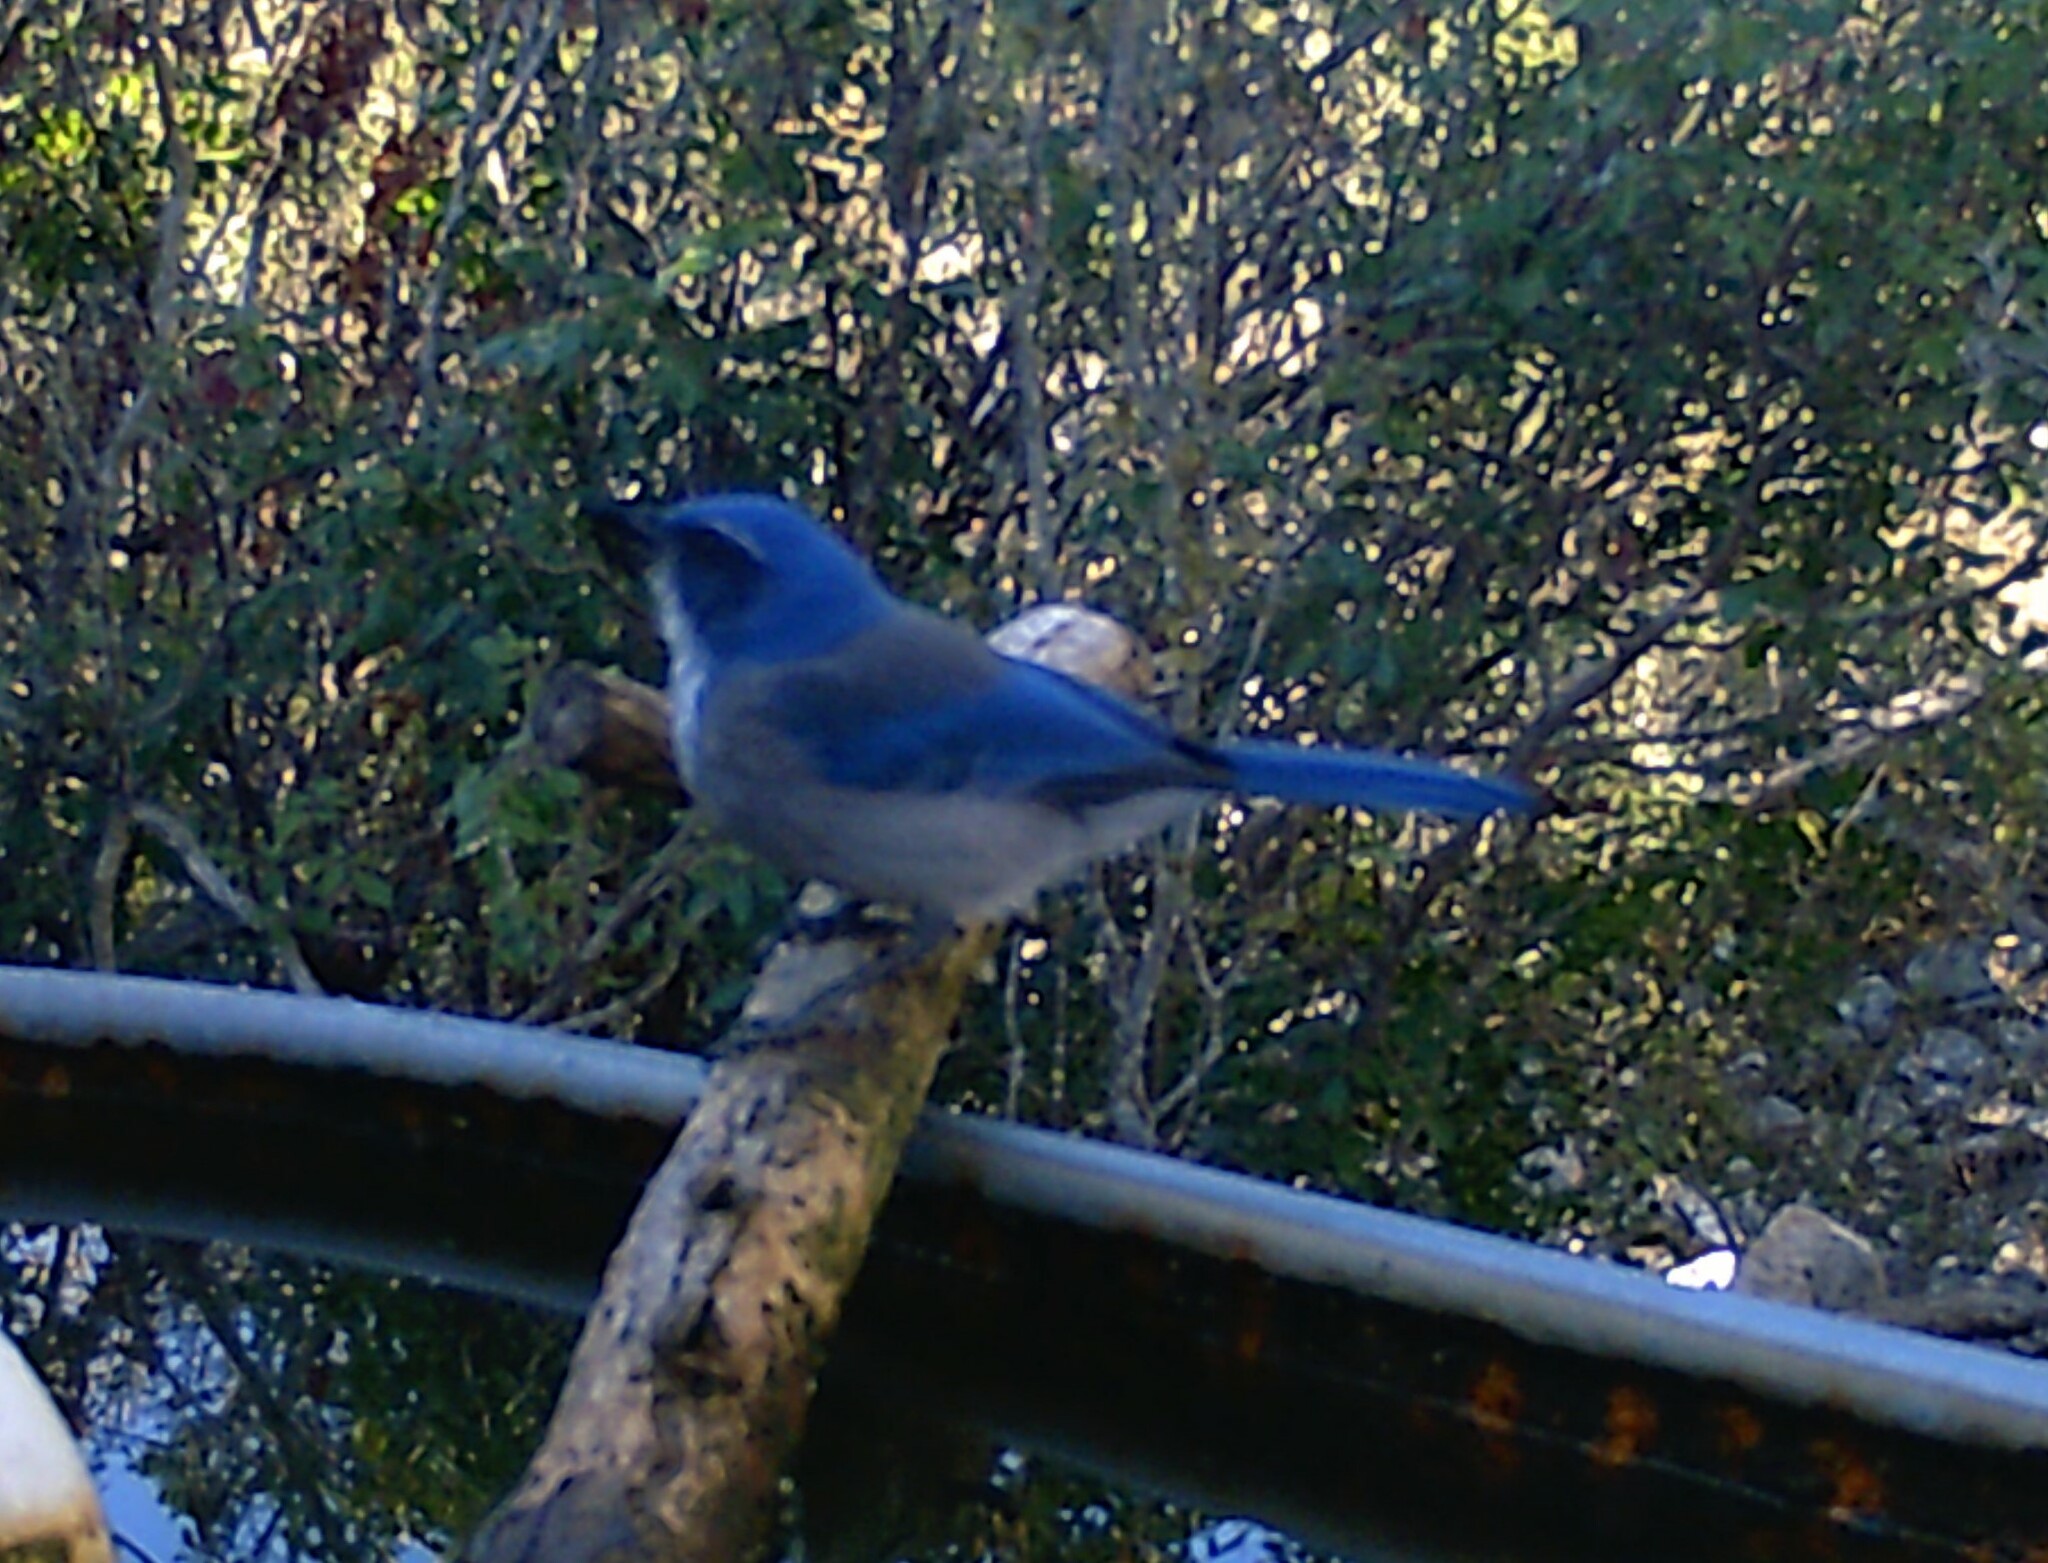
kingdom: Animalia
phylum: Chordata
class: Aves
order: Passeriformes
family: Corvidae
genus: Aphelocoma
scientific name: Aphelocoma woodhouseii
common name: Woodhouse's scrub-jay
